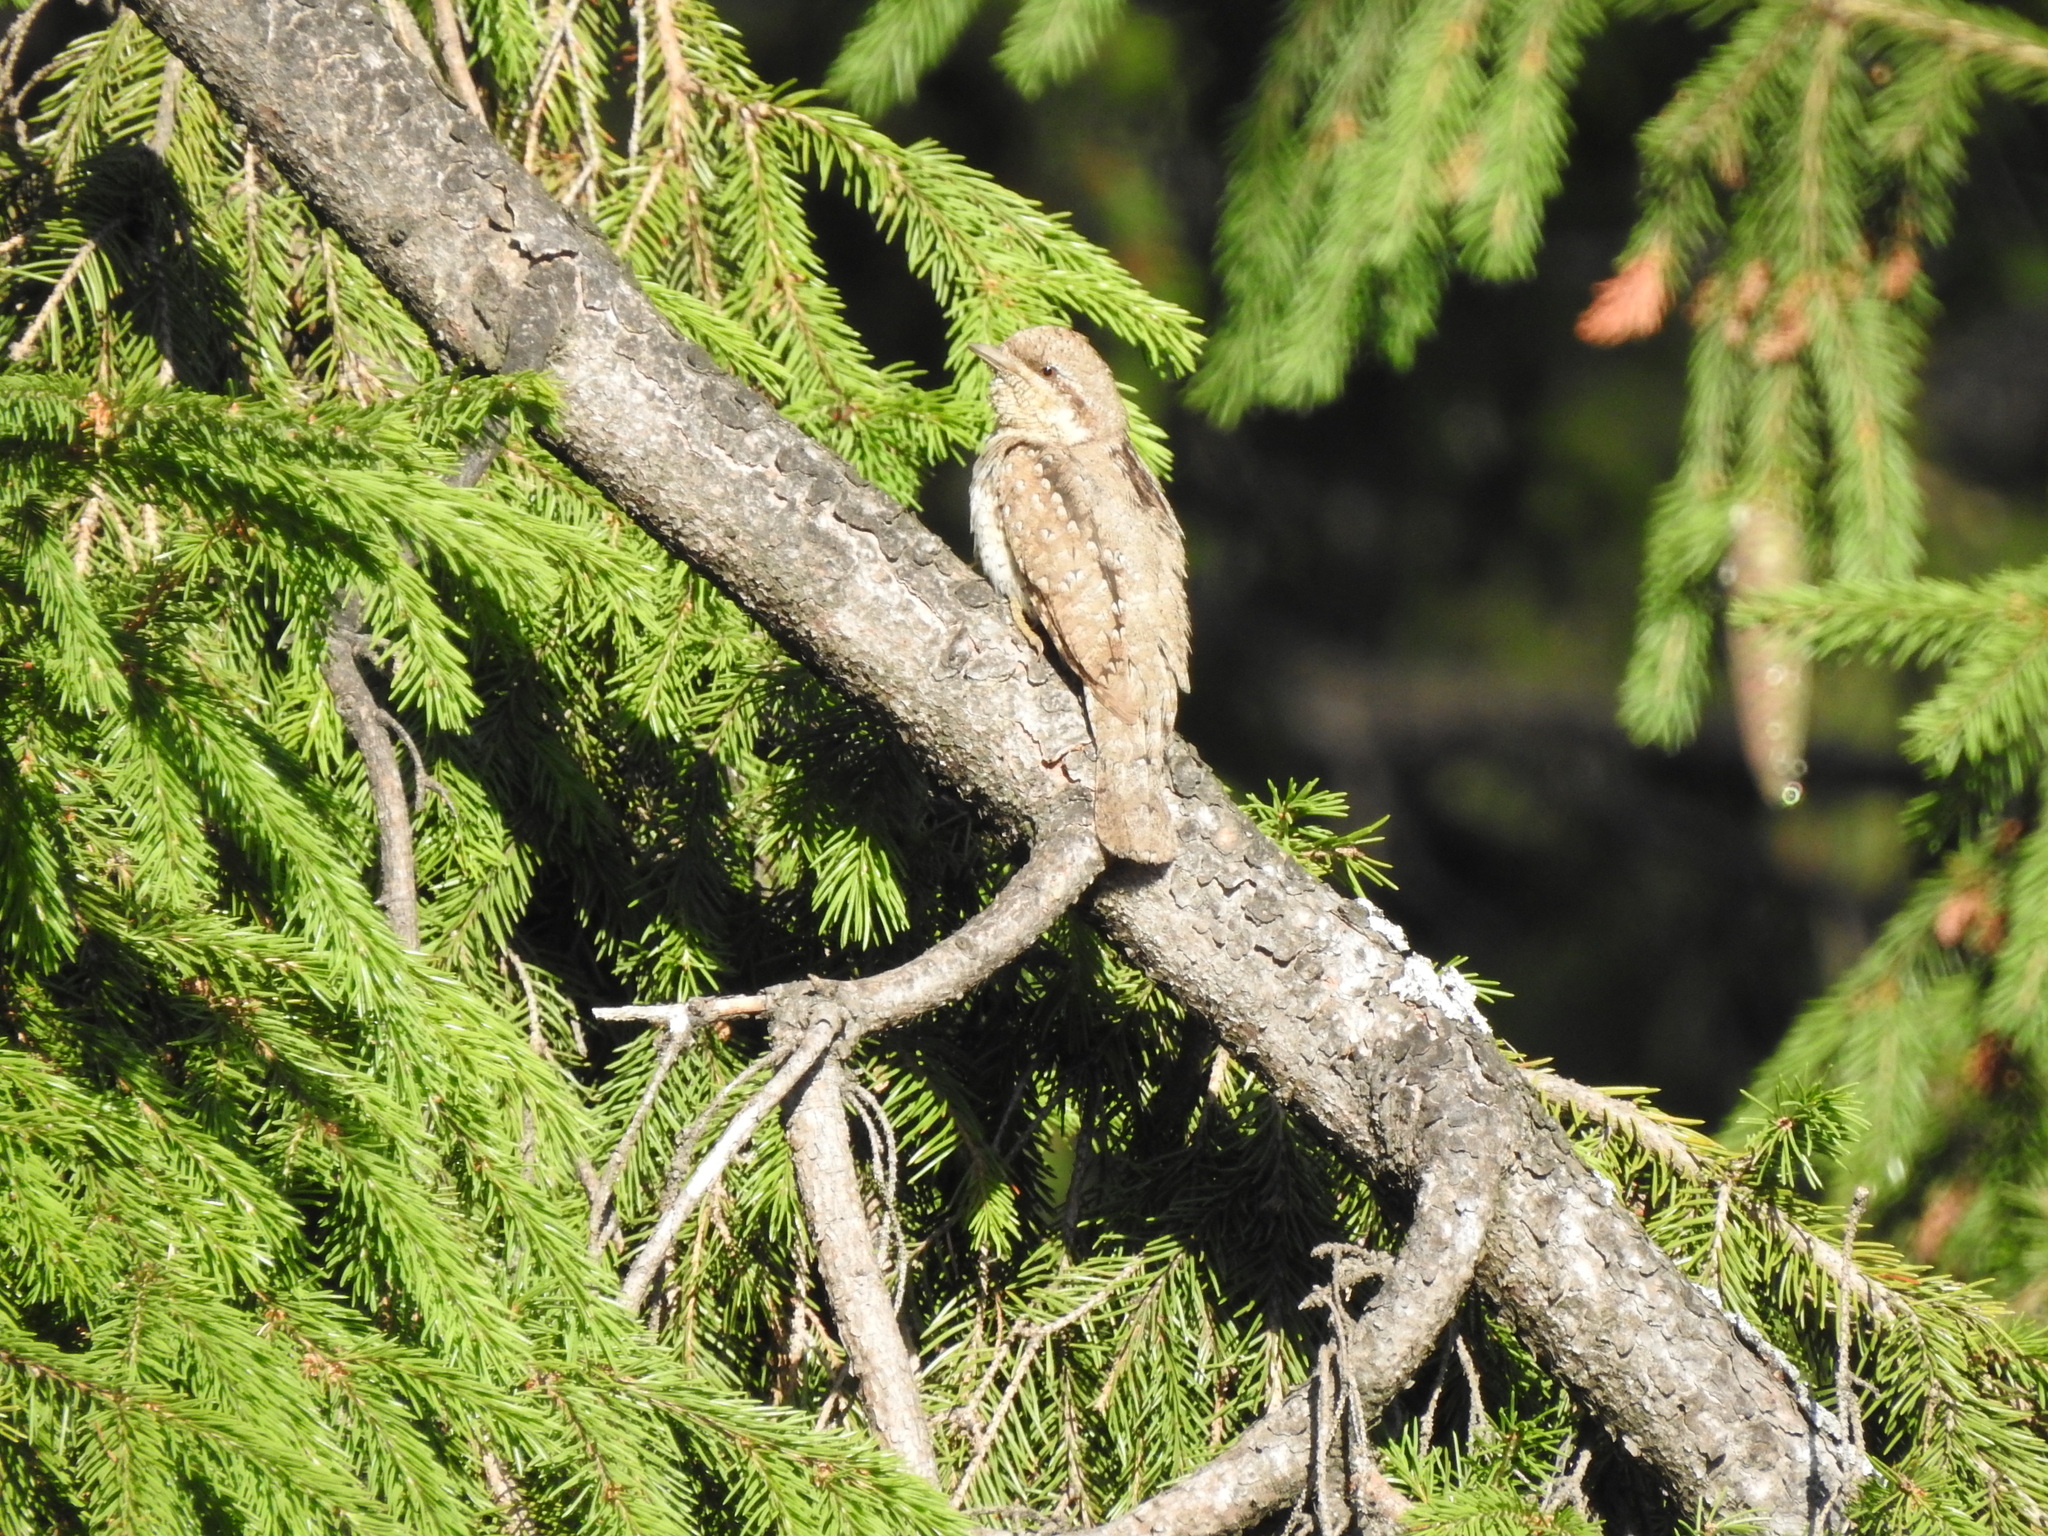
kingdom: Animalia
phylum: Chordata
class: Aves
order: Piciformes
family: Picidae
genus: Jynx
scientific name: Jynx torquilla
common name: Eurasian wryneck
